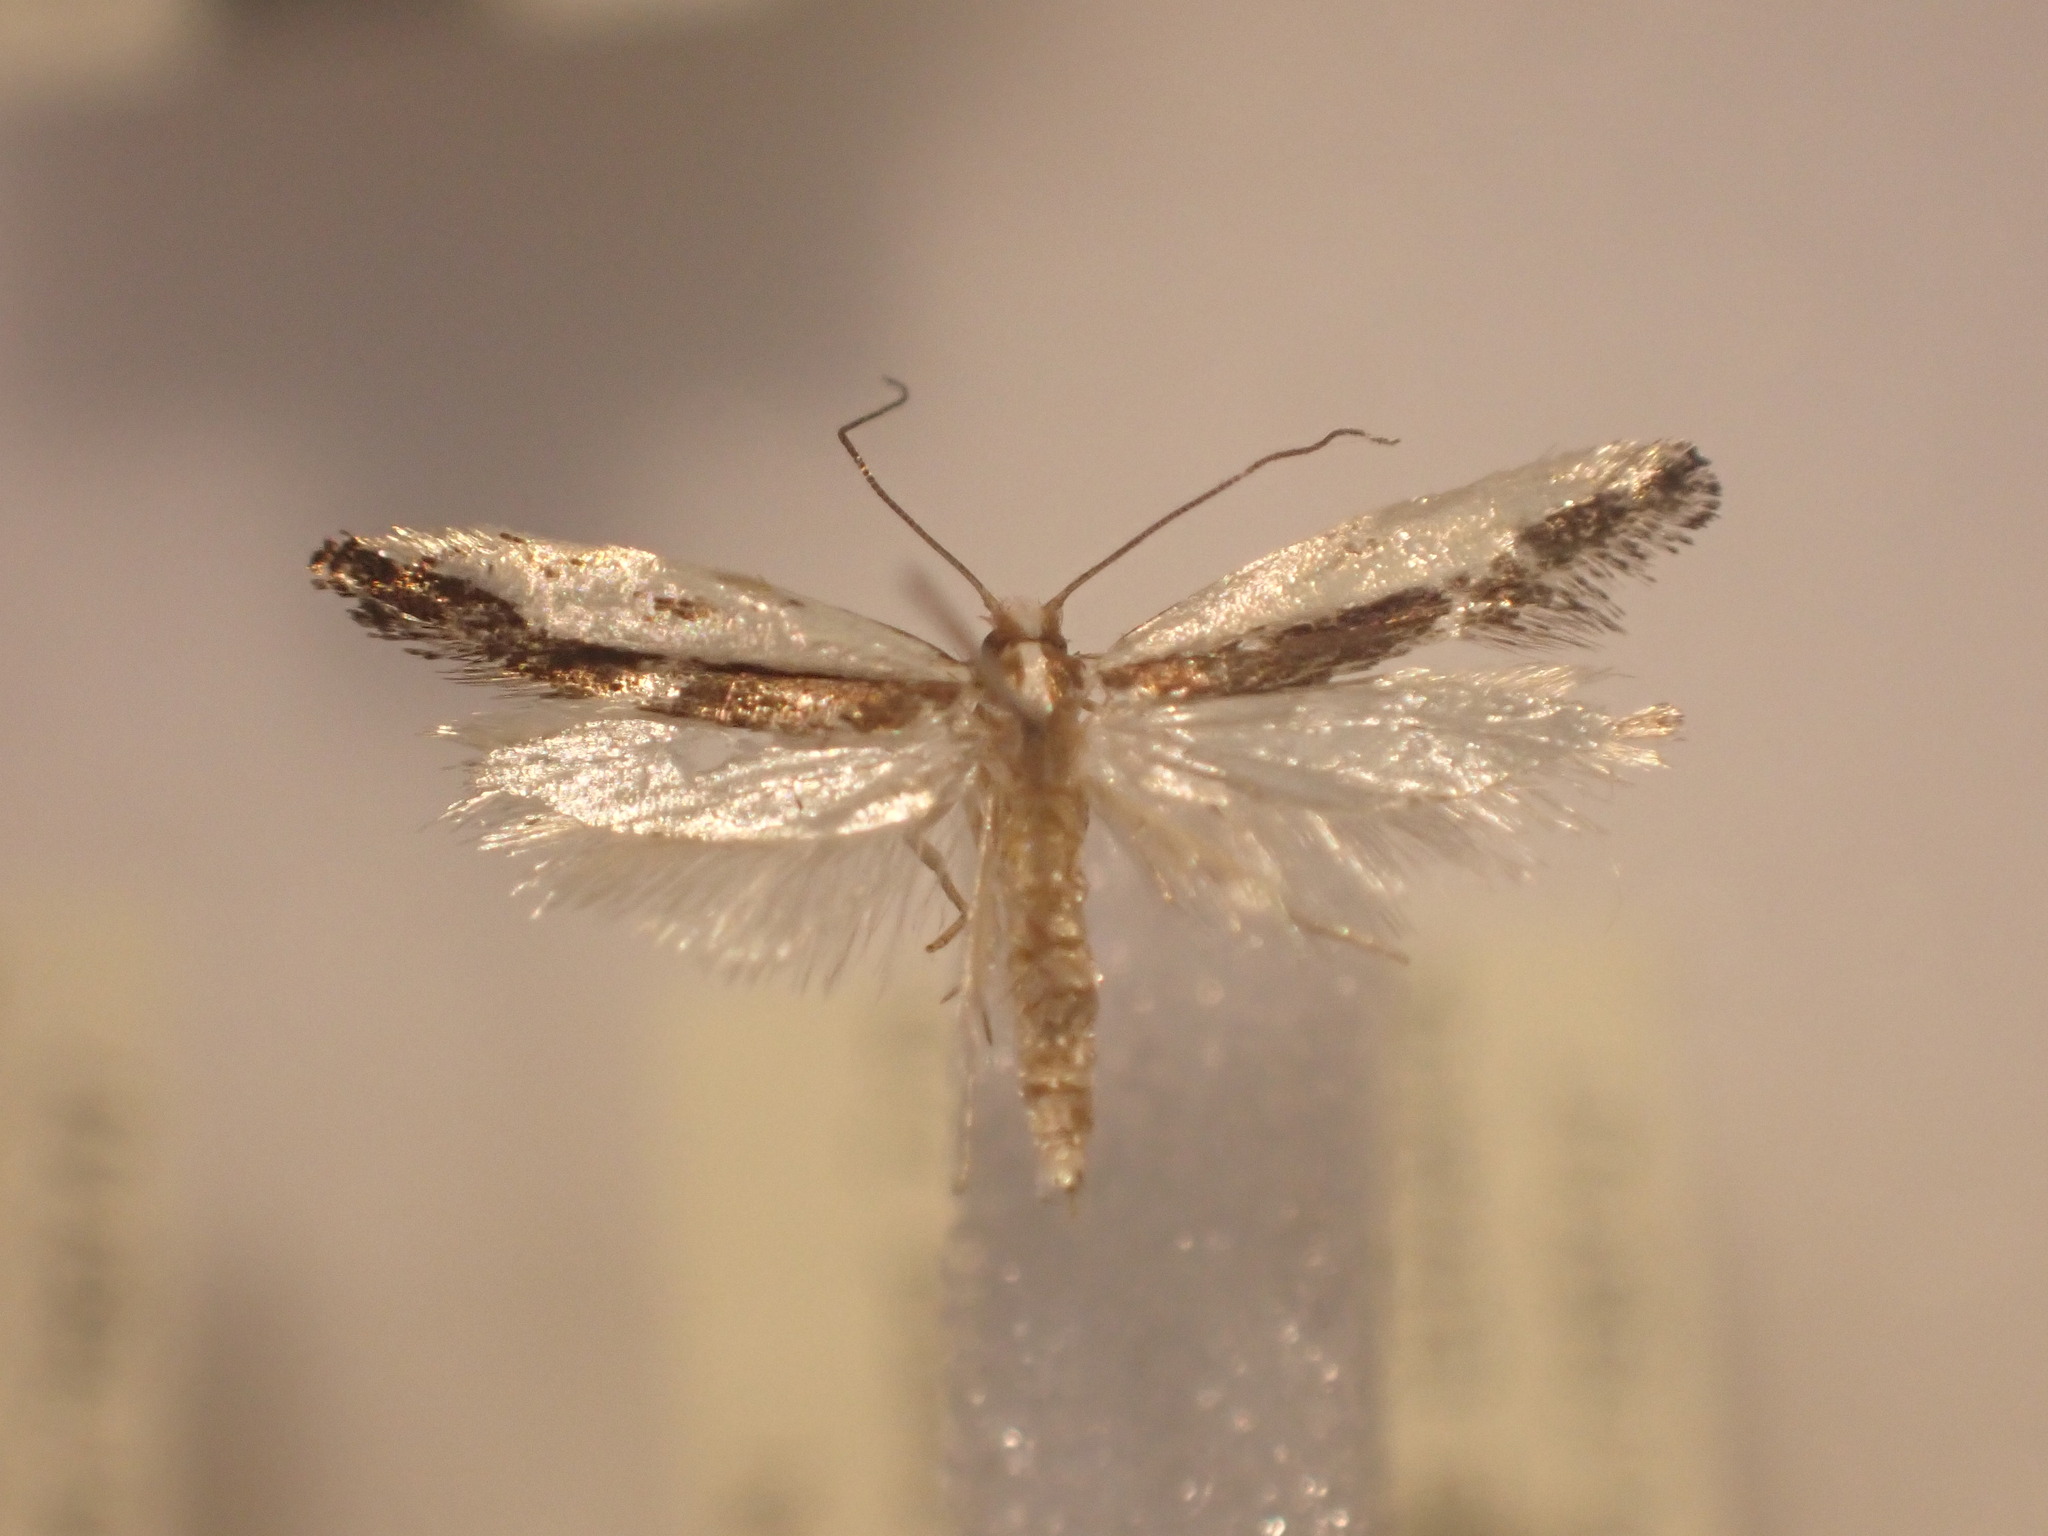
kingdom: Animalia
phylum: Arthropoda
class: Insecta
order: Lepidoptera
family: Tineidae
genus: Erechthias
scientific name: Erechthias chionodira
